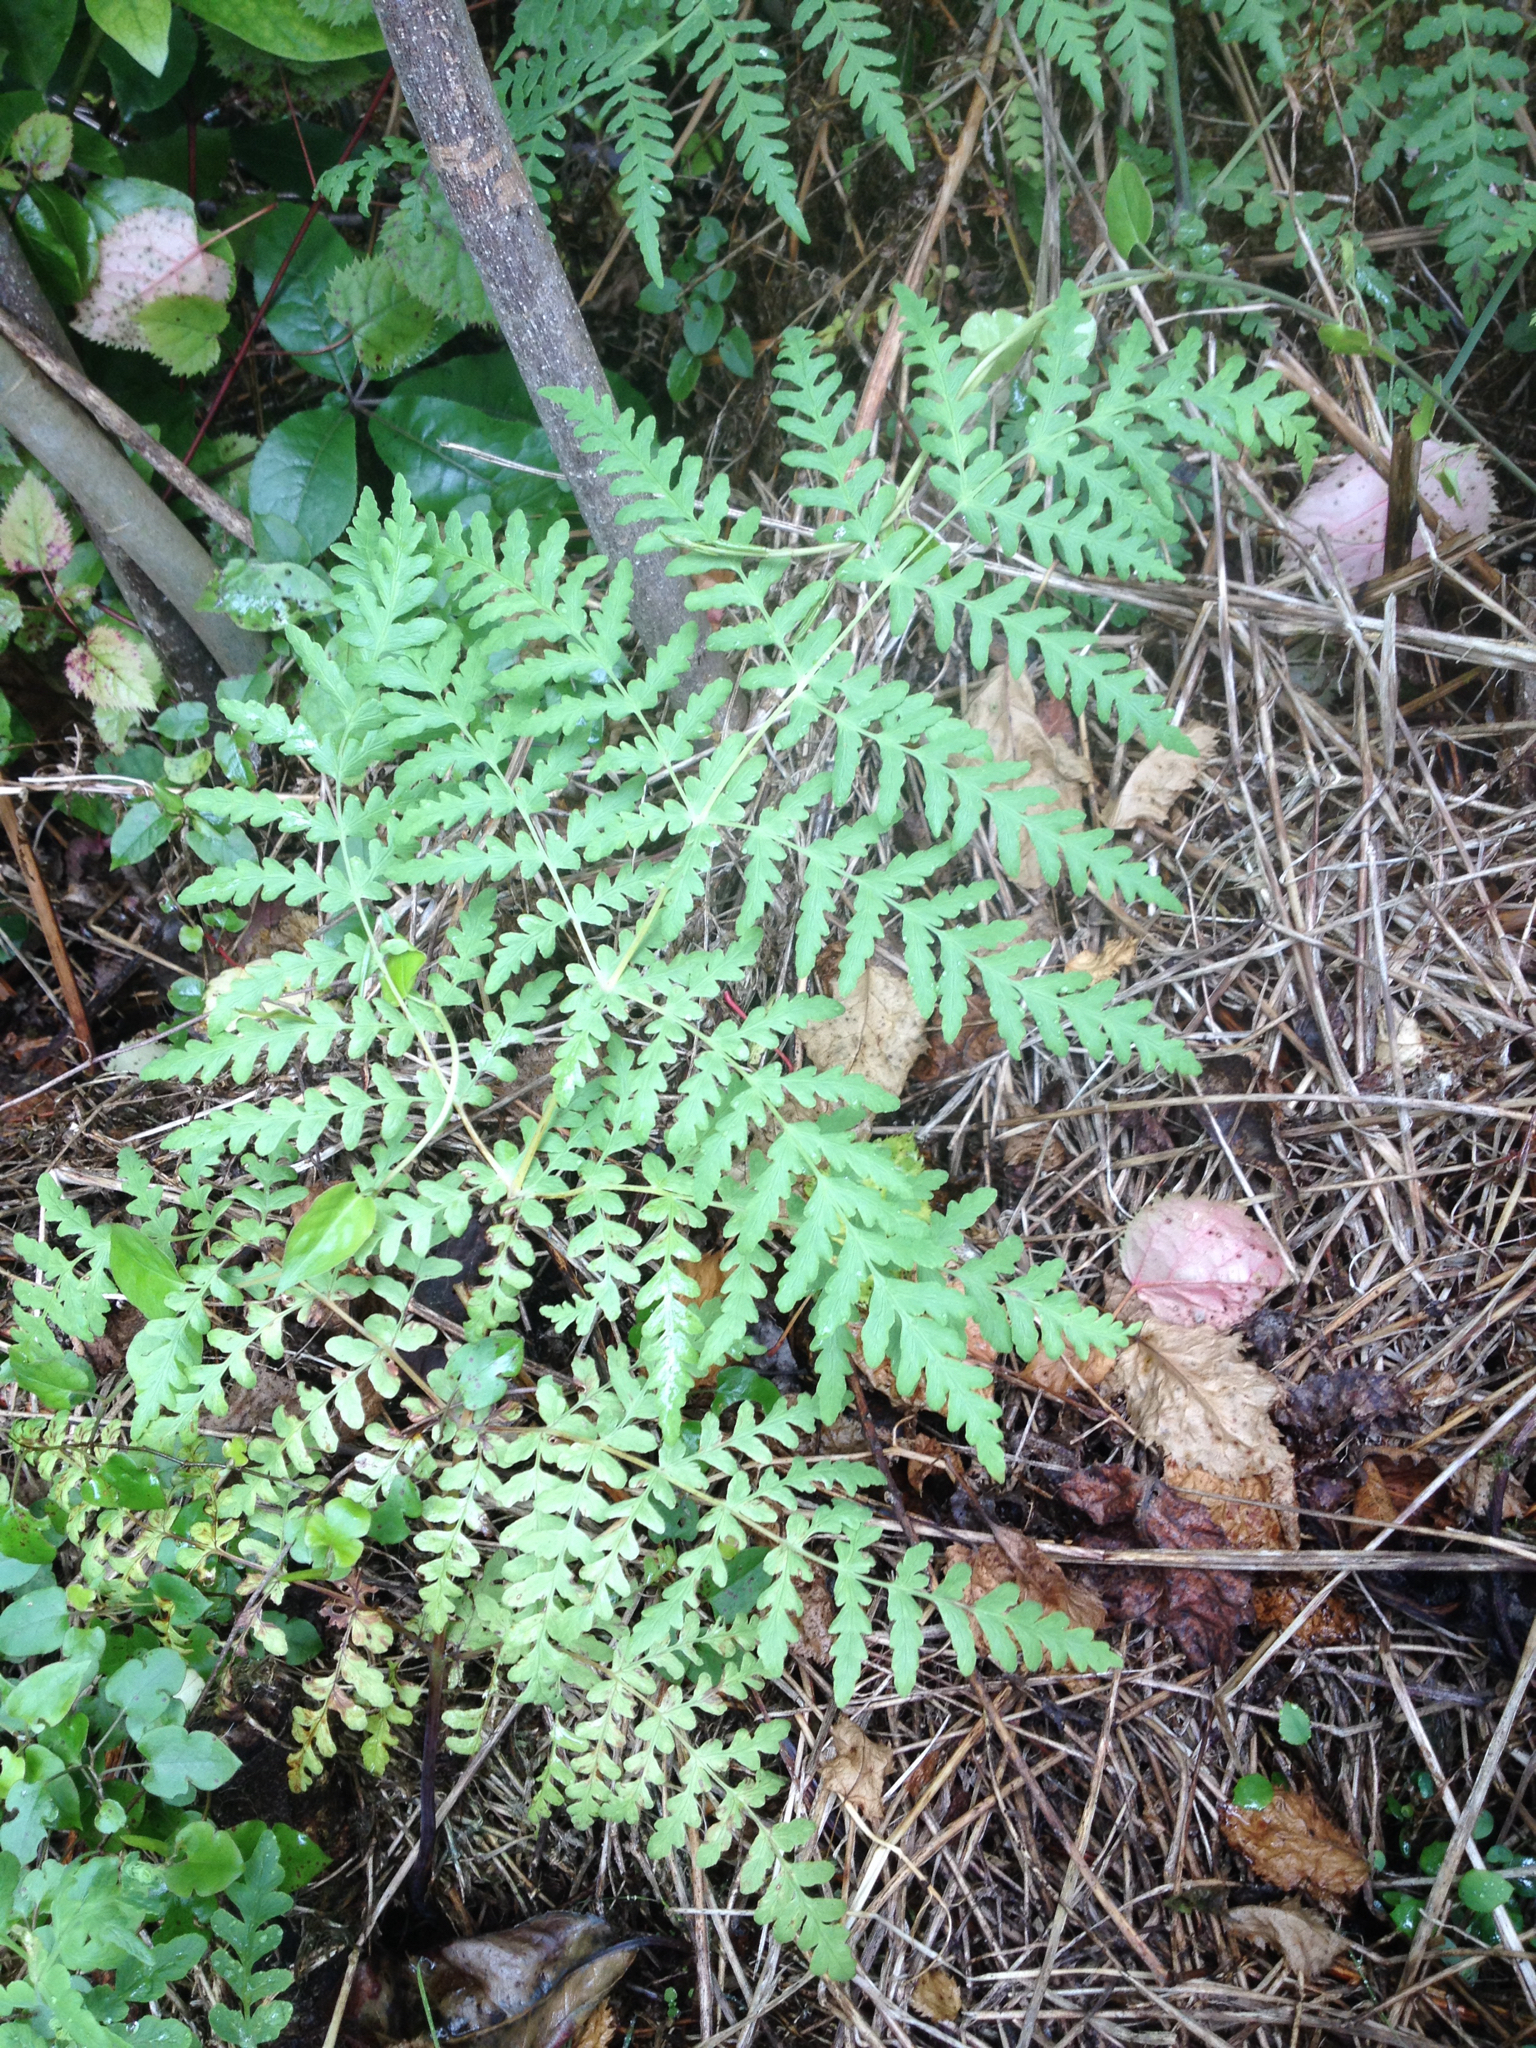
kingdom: Plantae
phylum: Tracheophyta
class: Polypodiopsida
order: Polypodiales
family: Dennstaedtiaceae
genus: Histiopteris
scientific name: Histiopteris incisa
